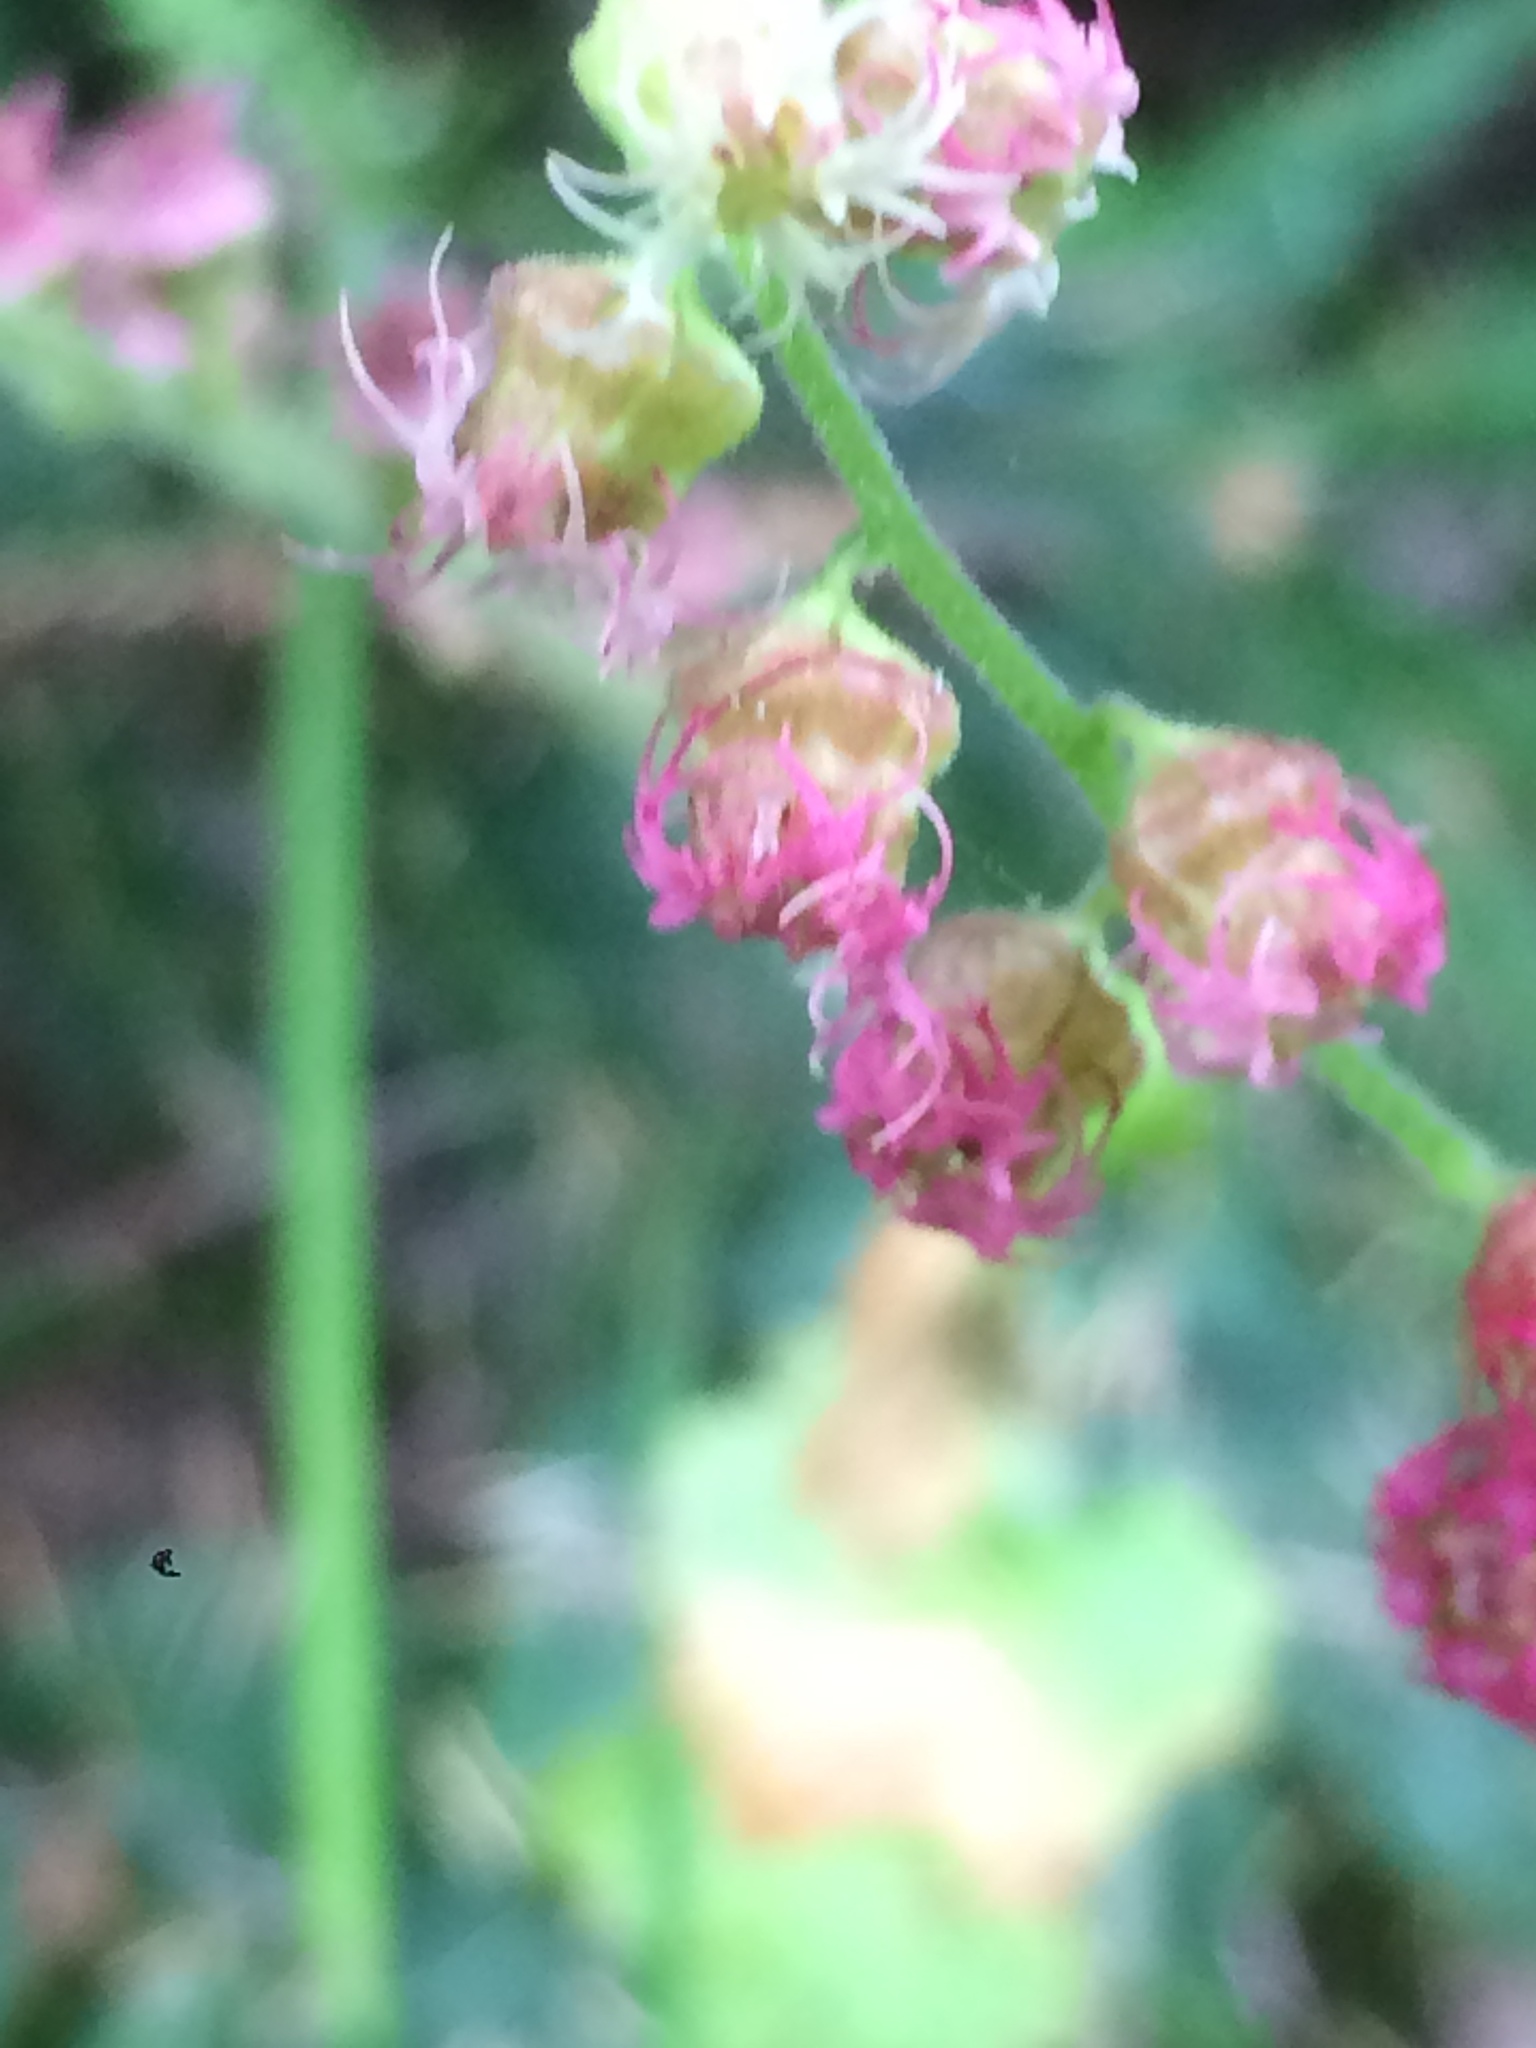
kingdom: Plantae
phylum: Tracheophyta
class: Magnoliopsida
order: Saxifragales
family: Saxifragaceae
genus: Tellima
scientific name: Tellima grandiflora
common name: Fringecups
